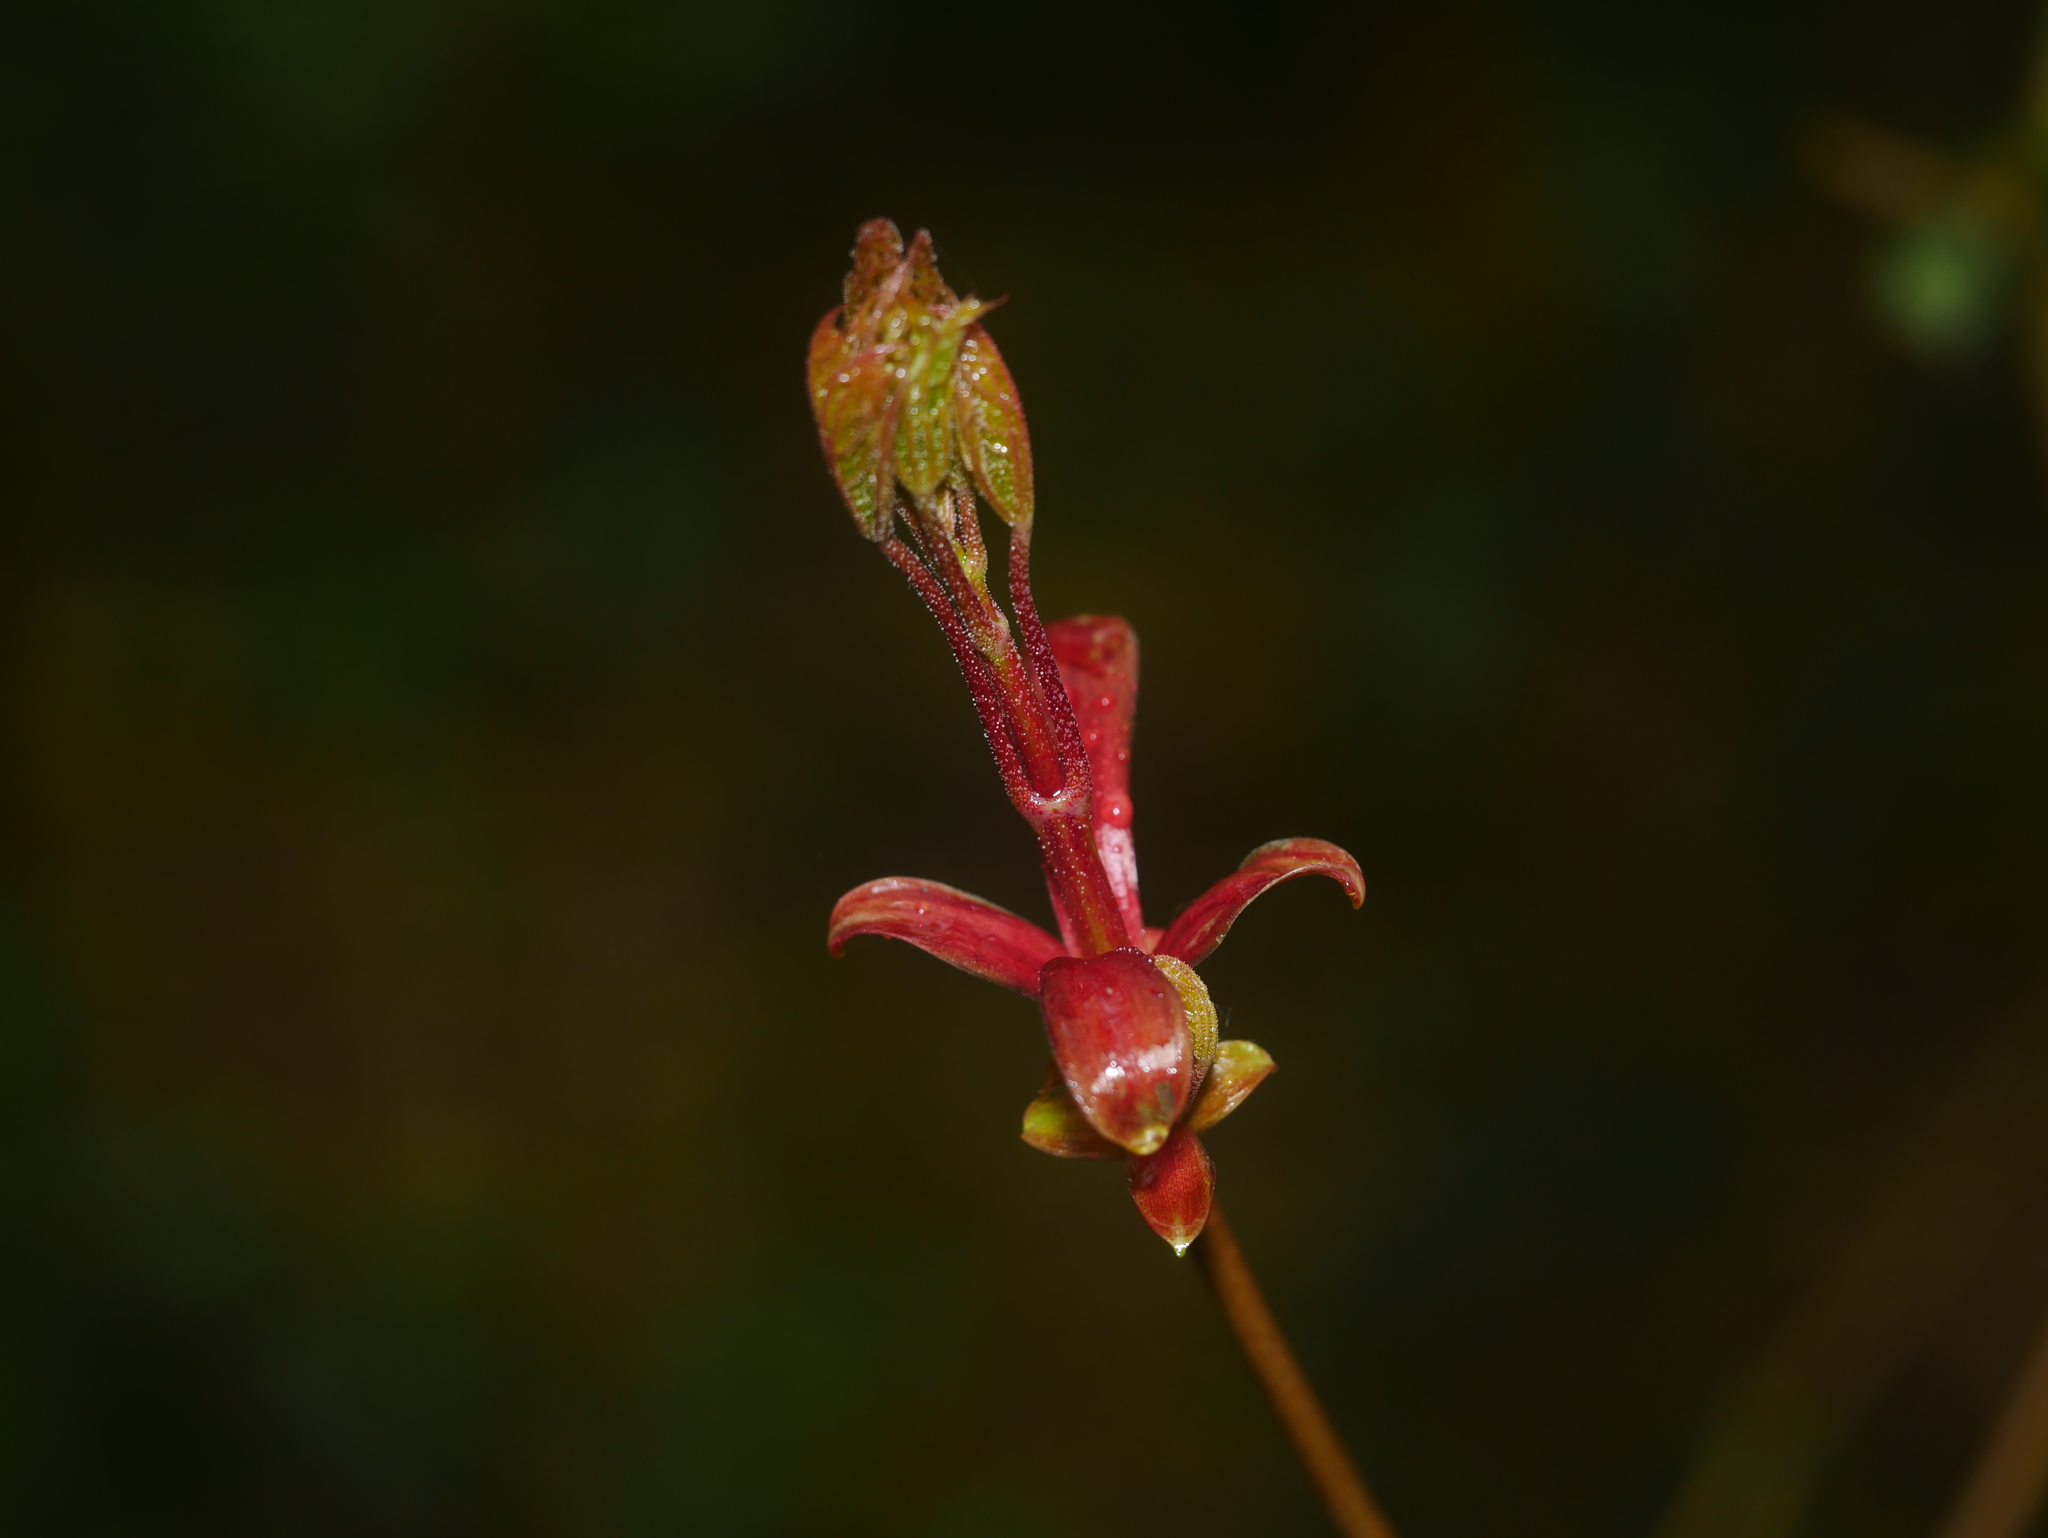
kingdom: Plantae
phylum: Tracheophyta
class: Magnoliopsida
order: Sapindales
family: Sapindaceae
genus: Acer
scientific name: Acer platanoides
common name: Norway maple
